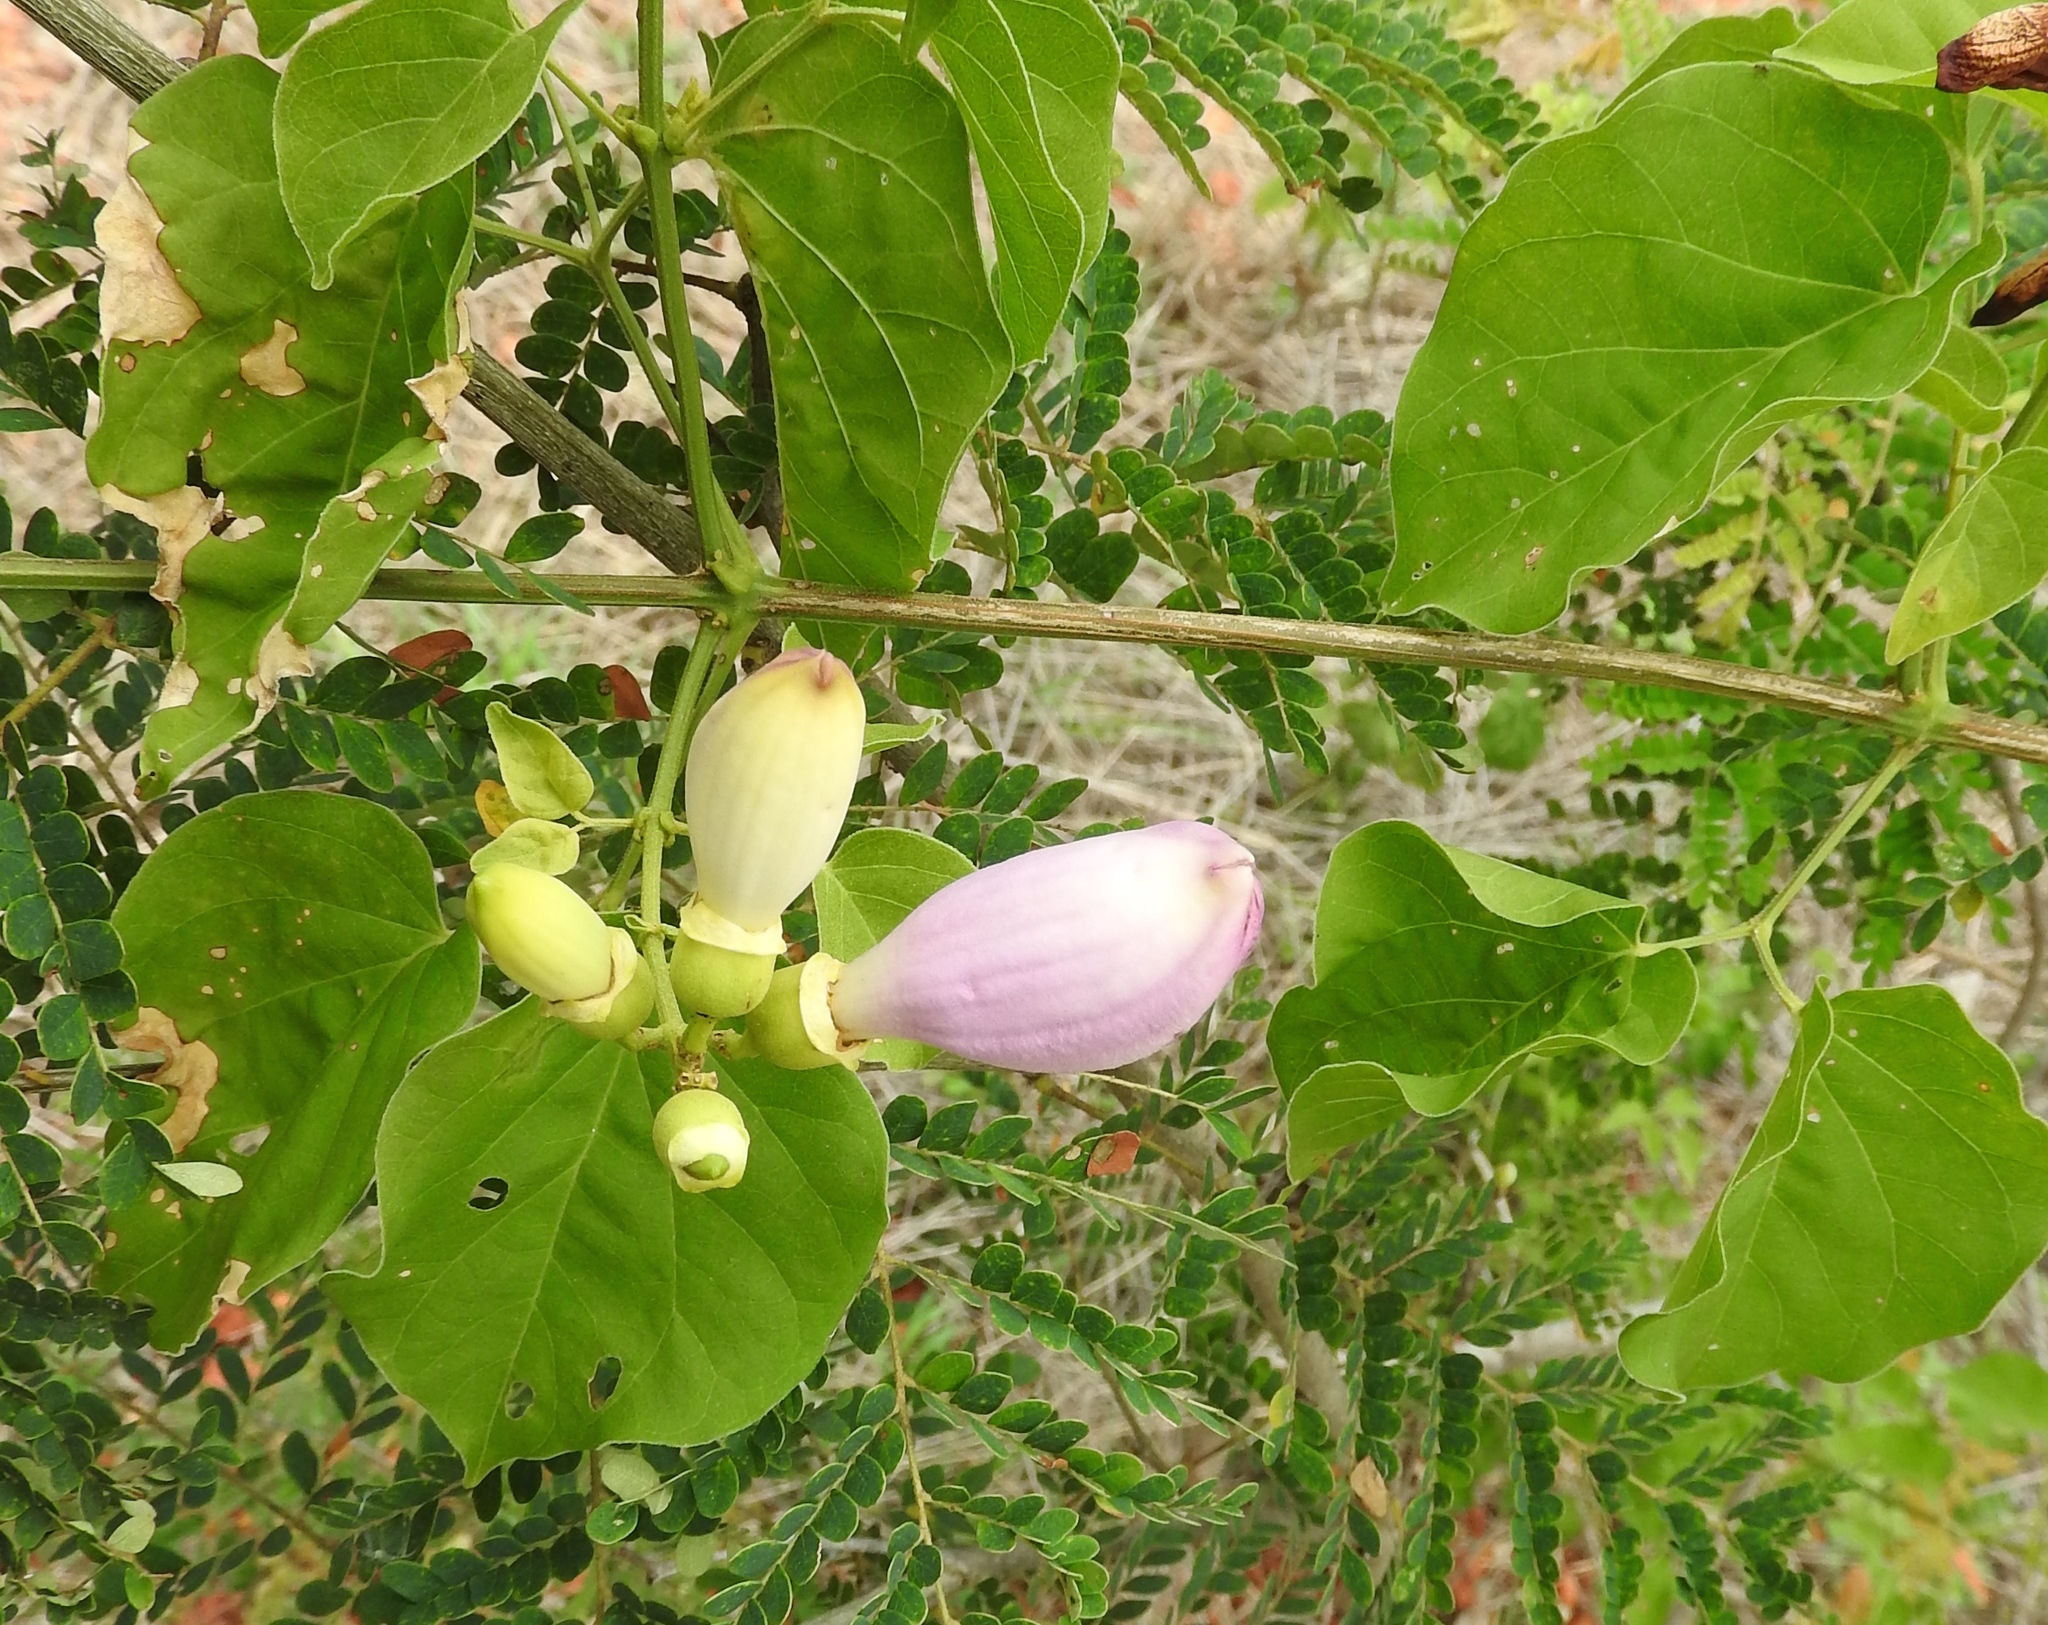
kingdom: Plantae
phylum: Tracheophyta
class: Magnoliopsida
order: Lamiales
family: Bignoniaceae
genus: Amphilophium
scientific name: Amphilophium paniculatum
